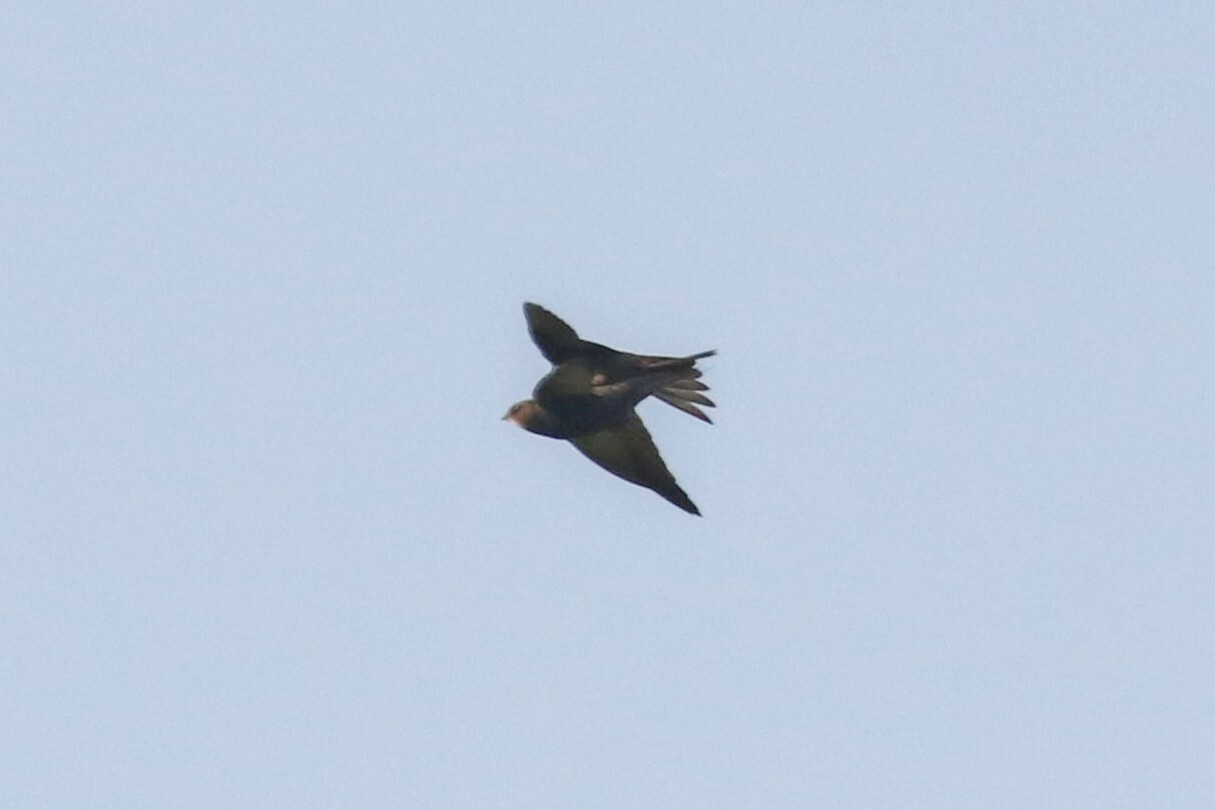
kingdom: Animalia
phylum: Chordata
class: Aves
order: Apodiformes
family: Apodidae
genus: Apus
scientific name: Apus apus
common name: Common swift
